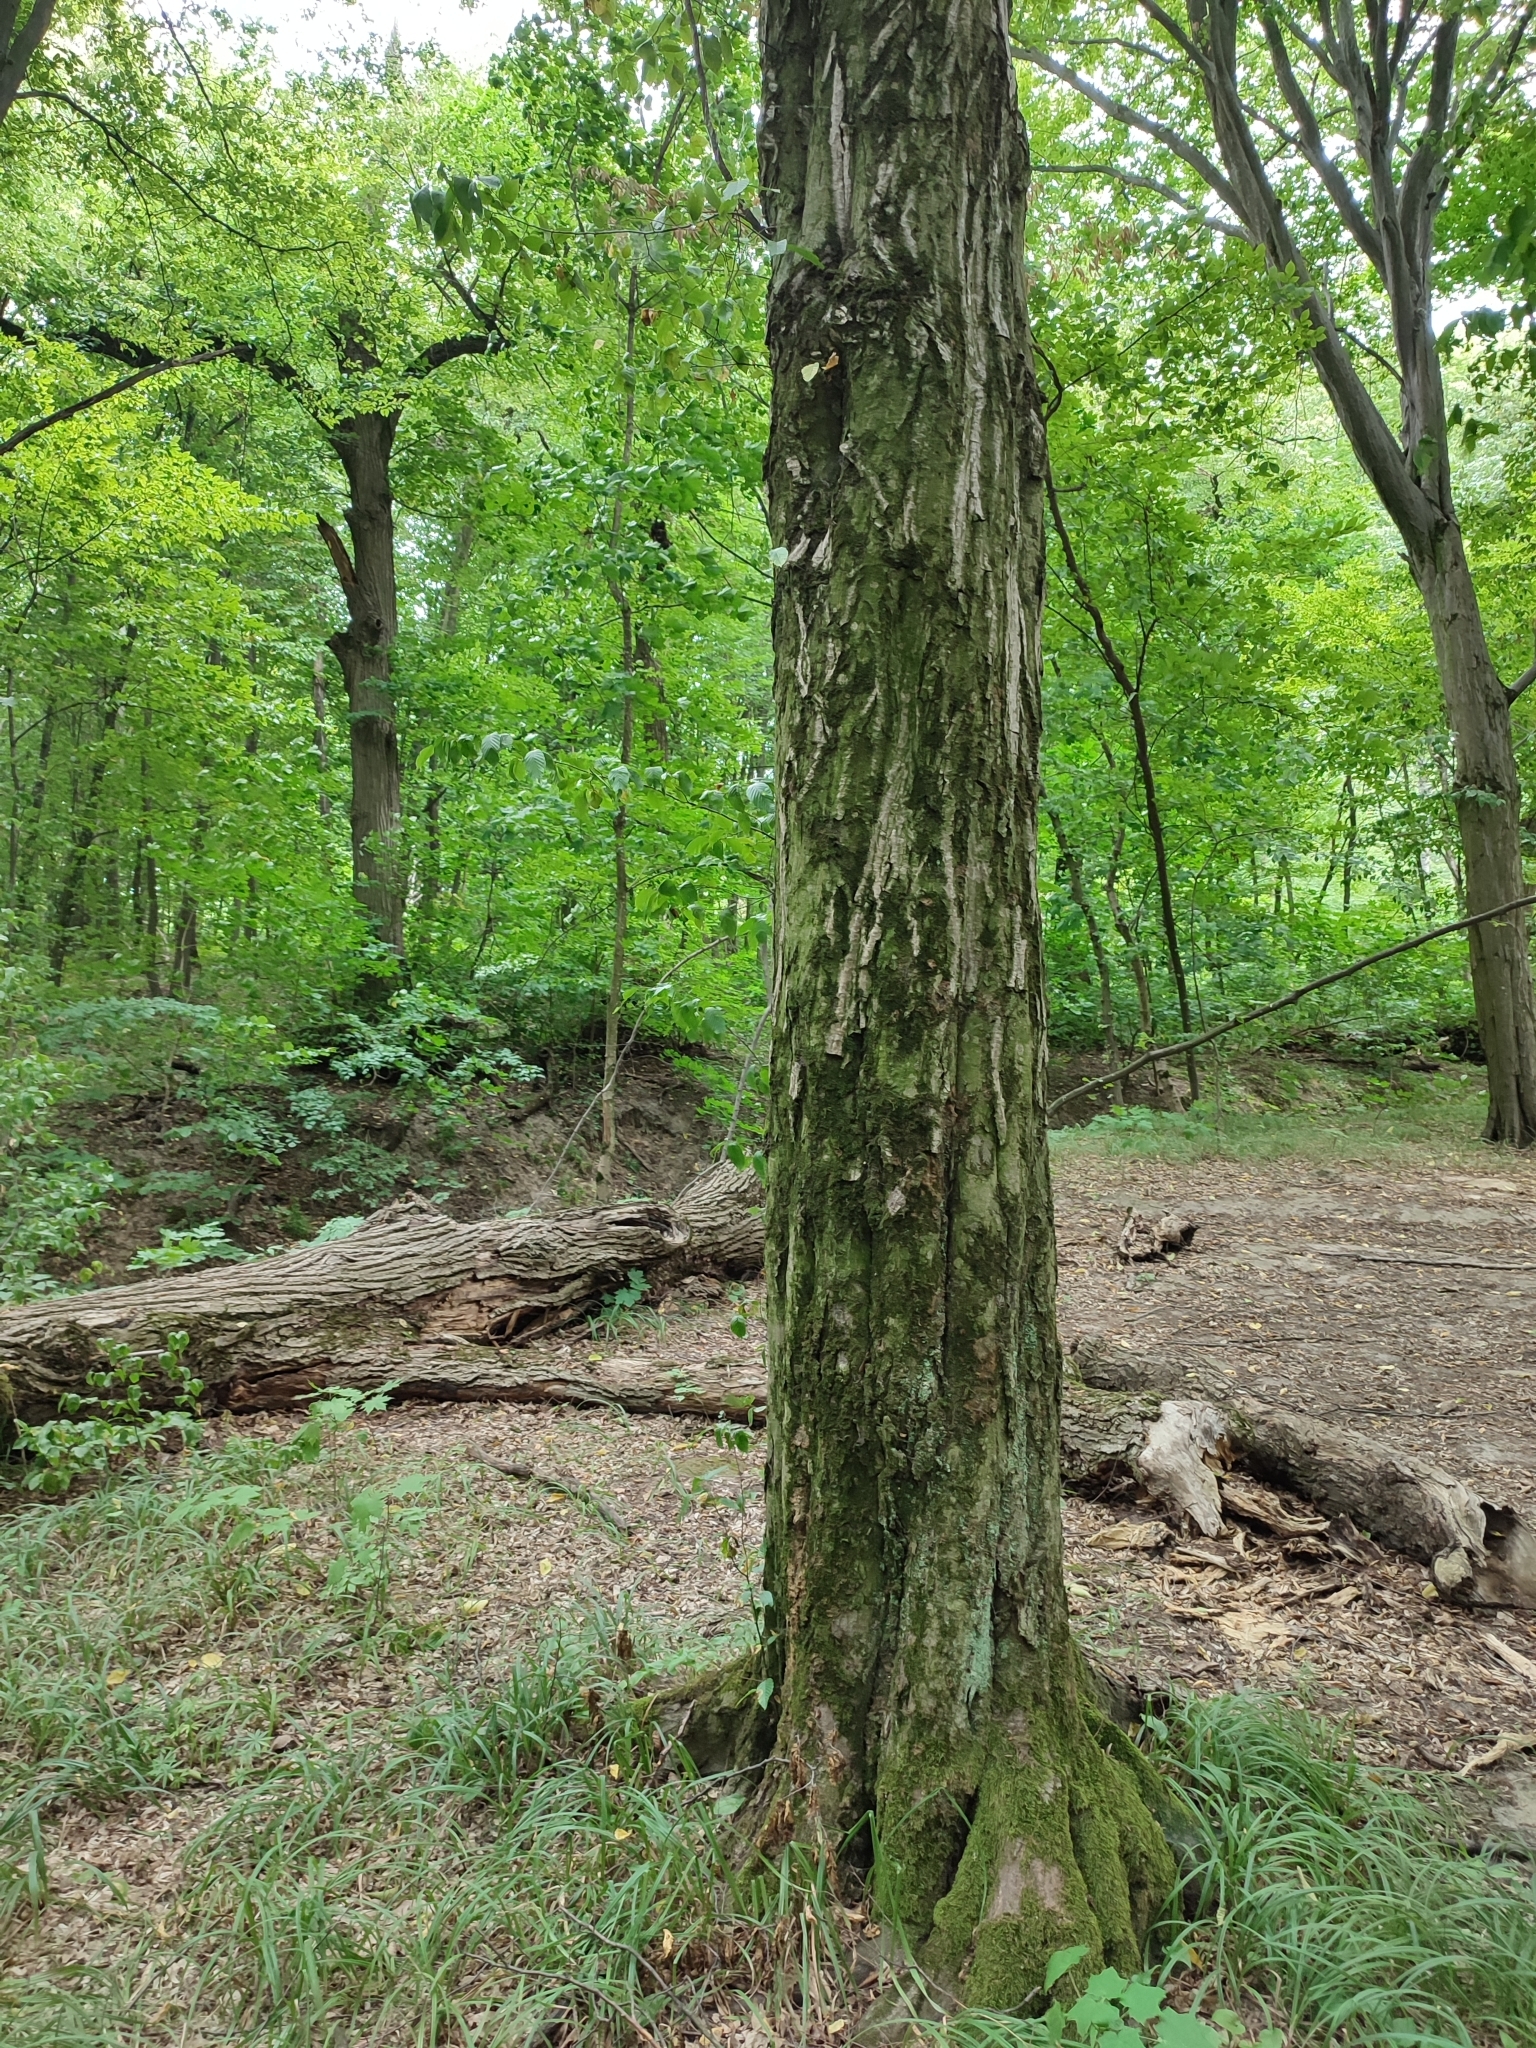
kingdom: Plantae
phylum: Tracheophyta
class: Magnoliopsida
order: Fagales
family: Betulaceae
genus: Carpinus
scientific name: Carpinus betulus
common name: Hornbeam
